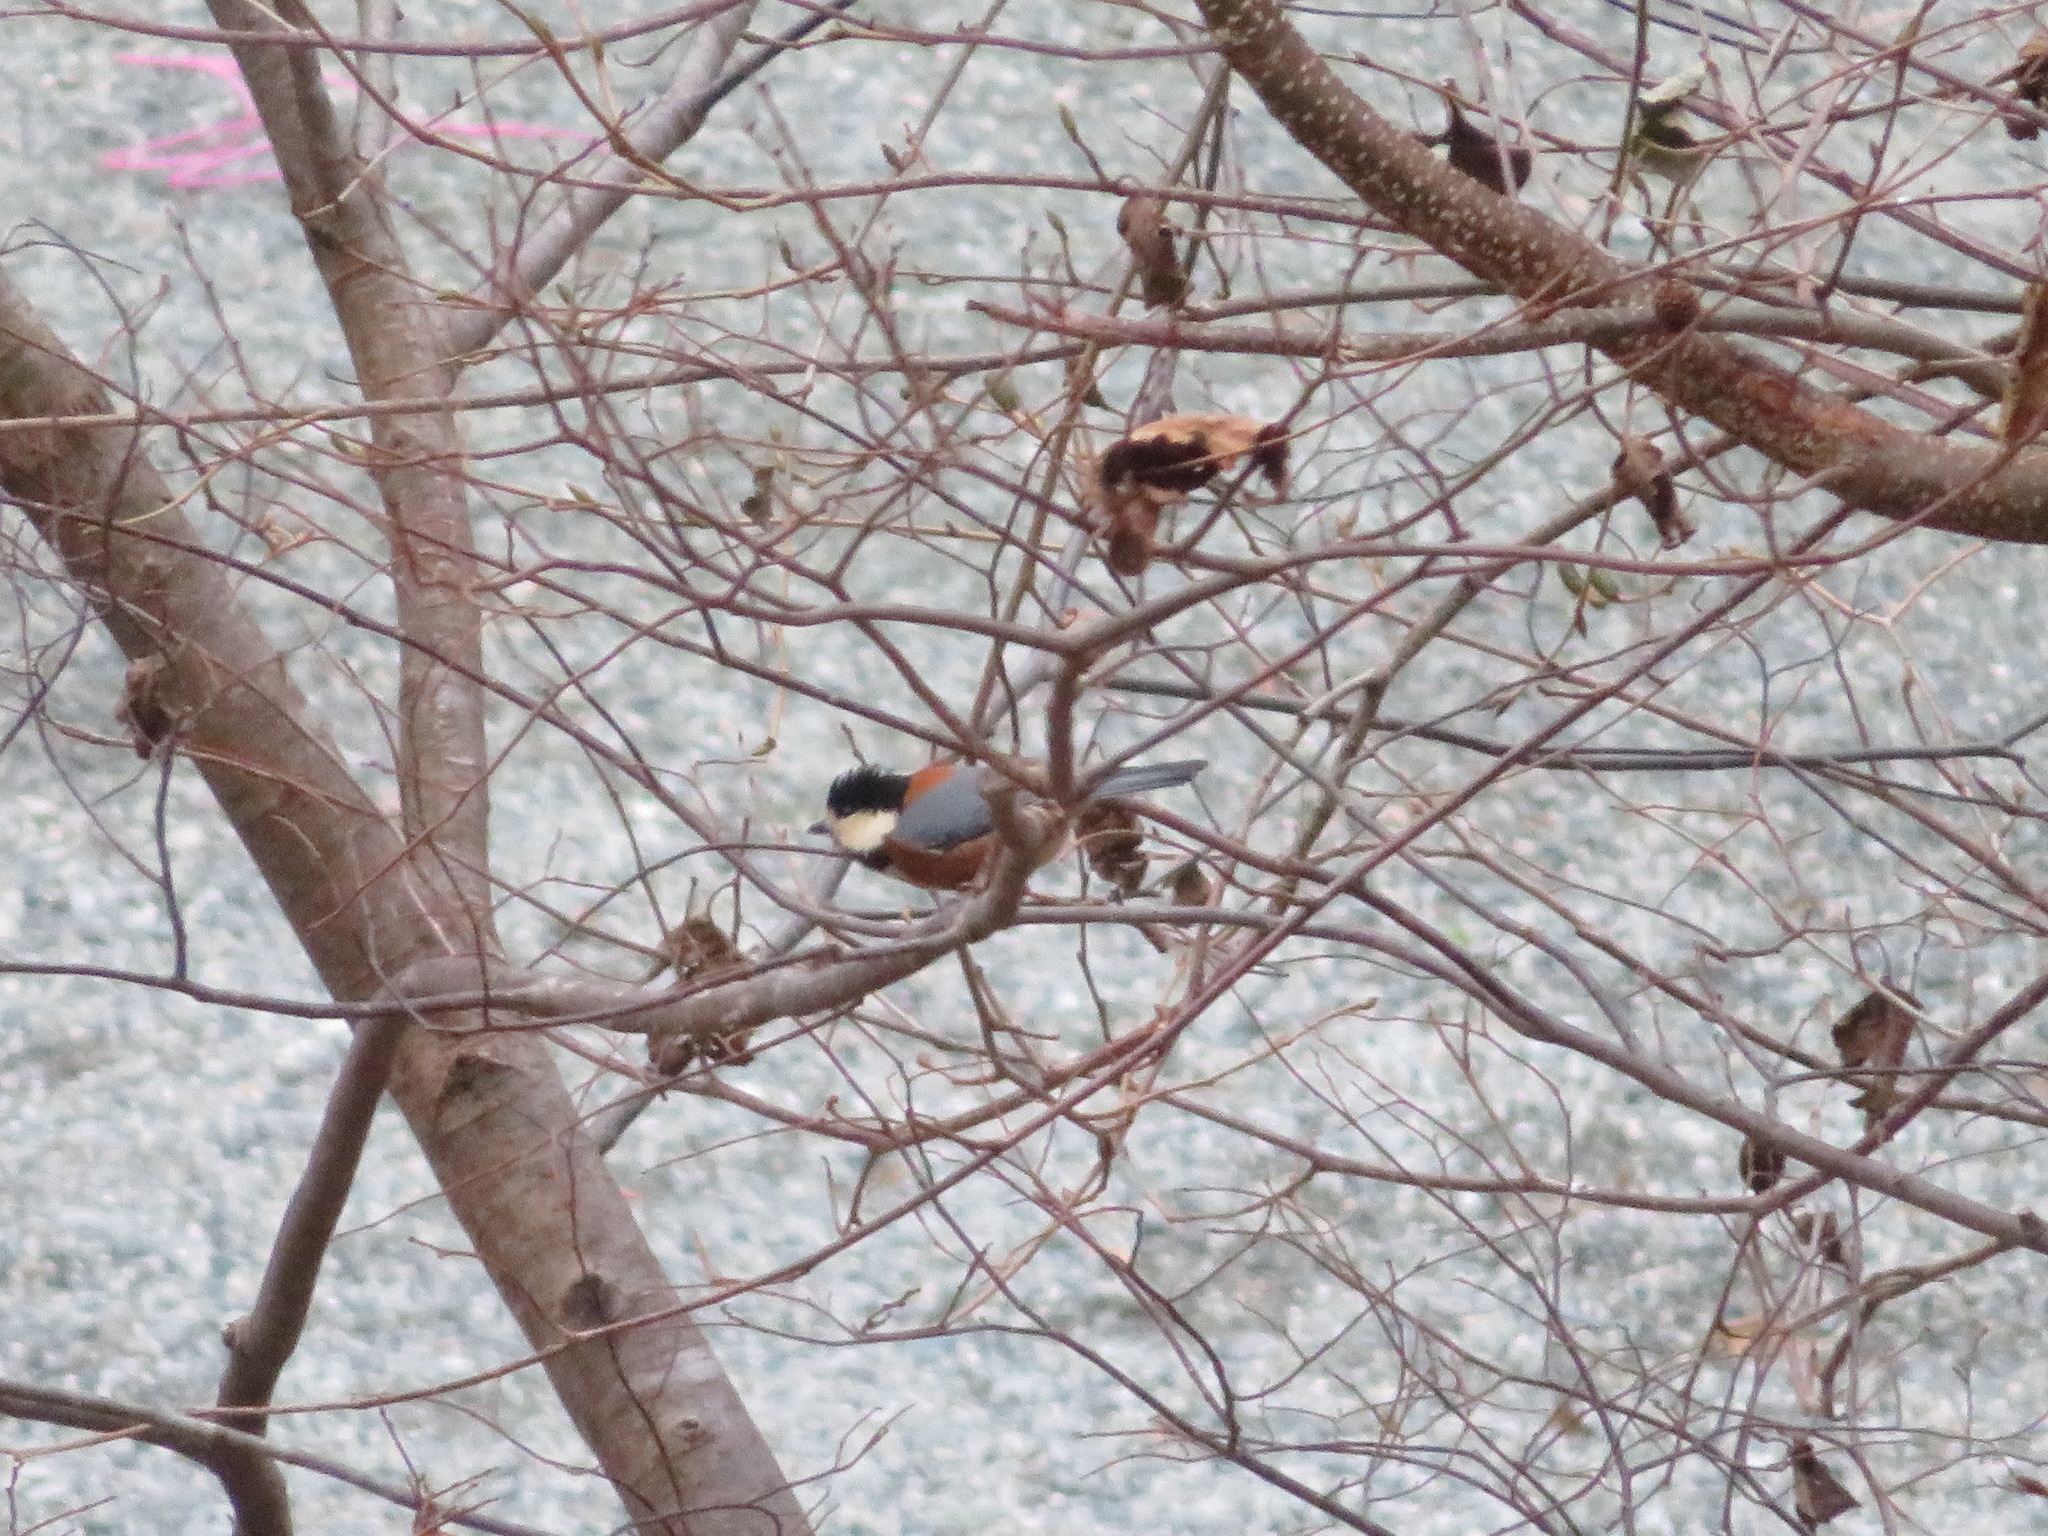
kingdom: Animalia
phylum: Chordata
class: Aves
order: Passeriformes
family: Paridae
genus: Poecile
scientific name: Poecile varius
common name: Varied tit
